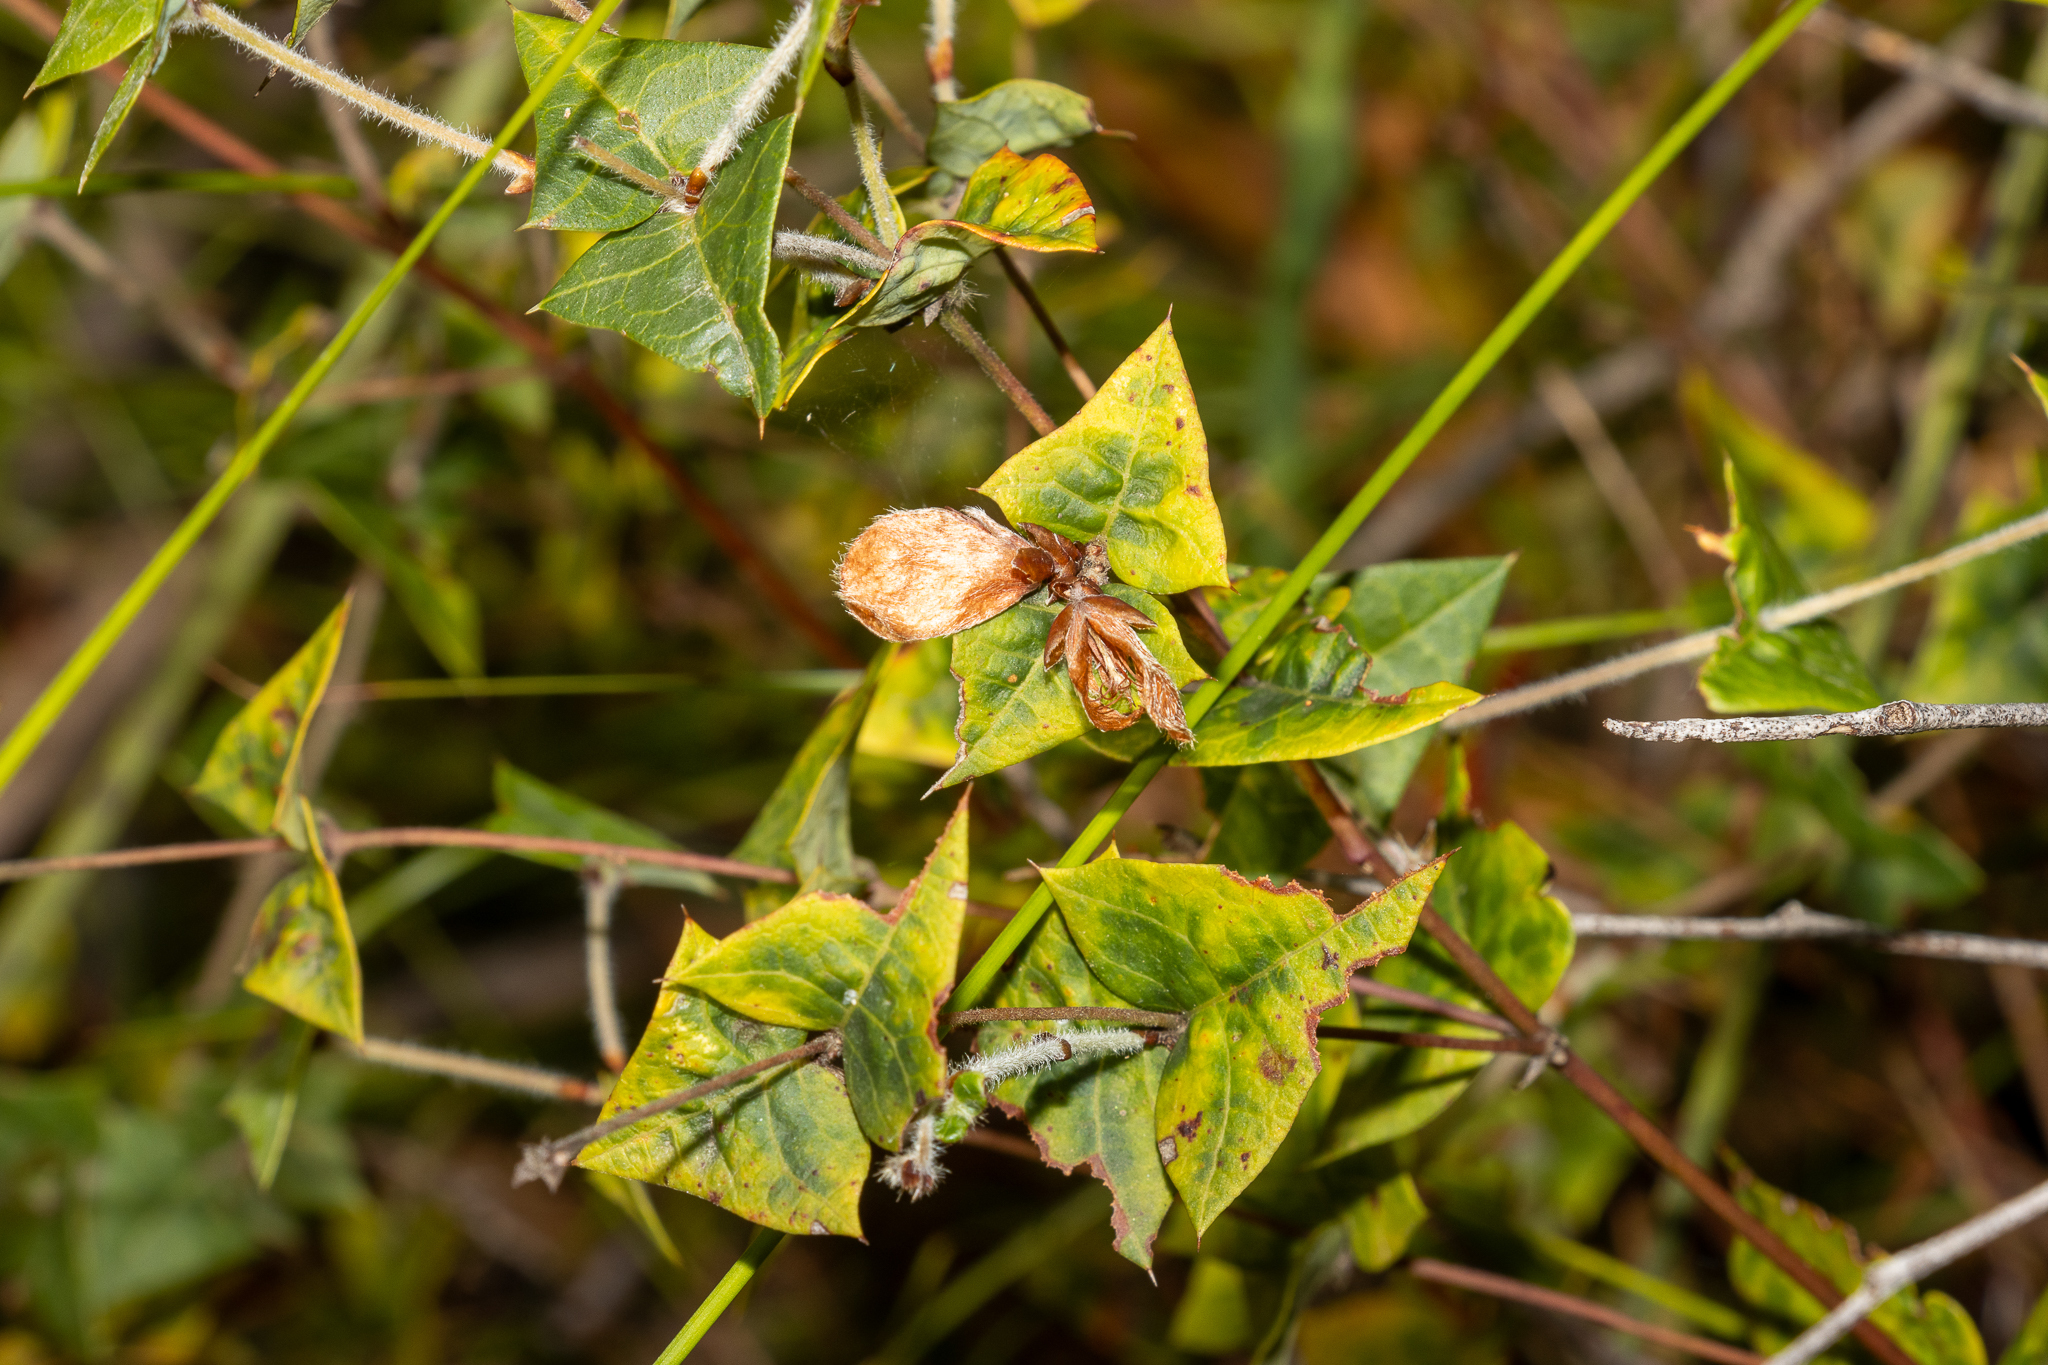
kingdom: Plantae
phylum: Tracheophyta
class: Magnoliopsida
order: Fabales
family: Fabaceae
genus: Platylobium
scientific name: Platylobium obtusangulum
